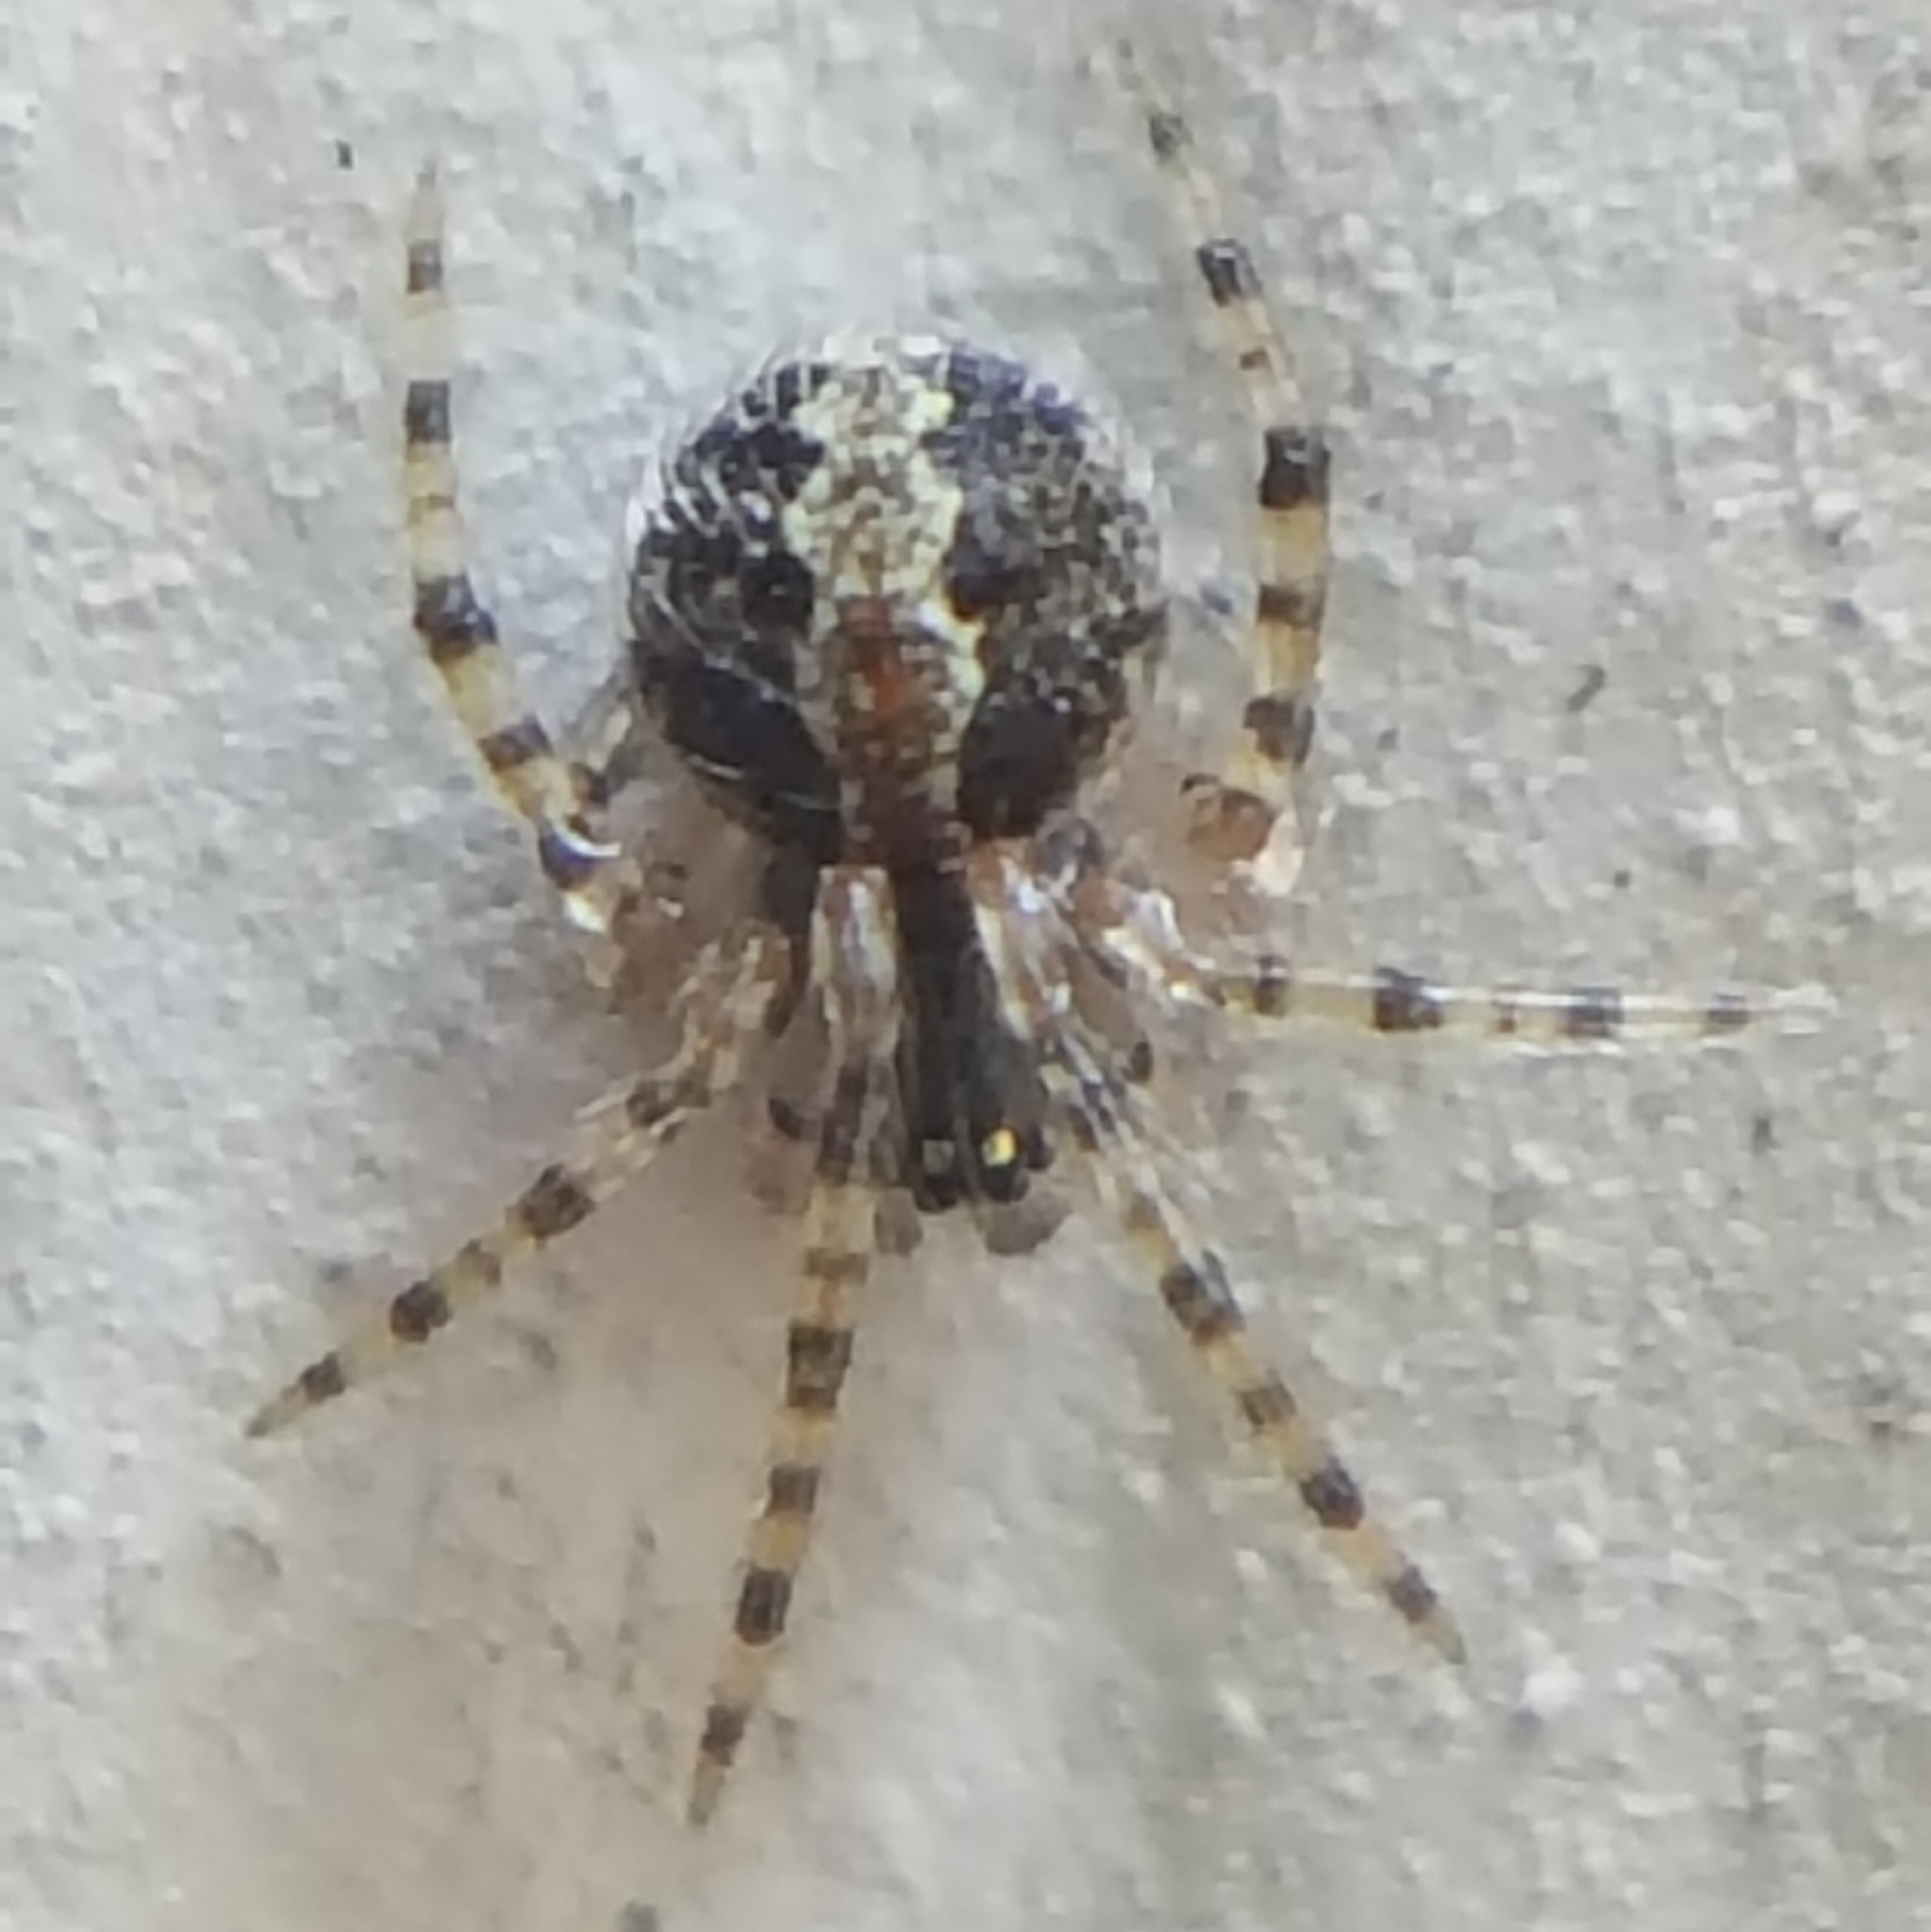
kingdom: Animalia
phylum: Arthropoda
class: Arachnida
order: Araneae
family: Theridiidae
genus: Theridion
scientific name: Theridion
